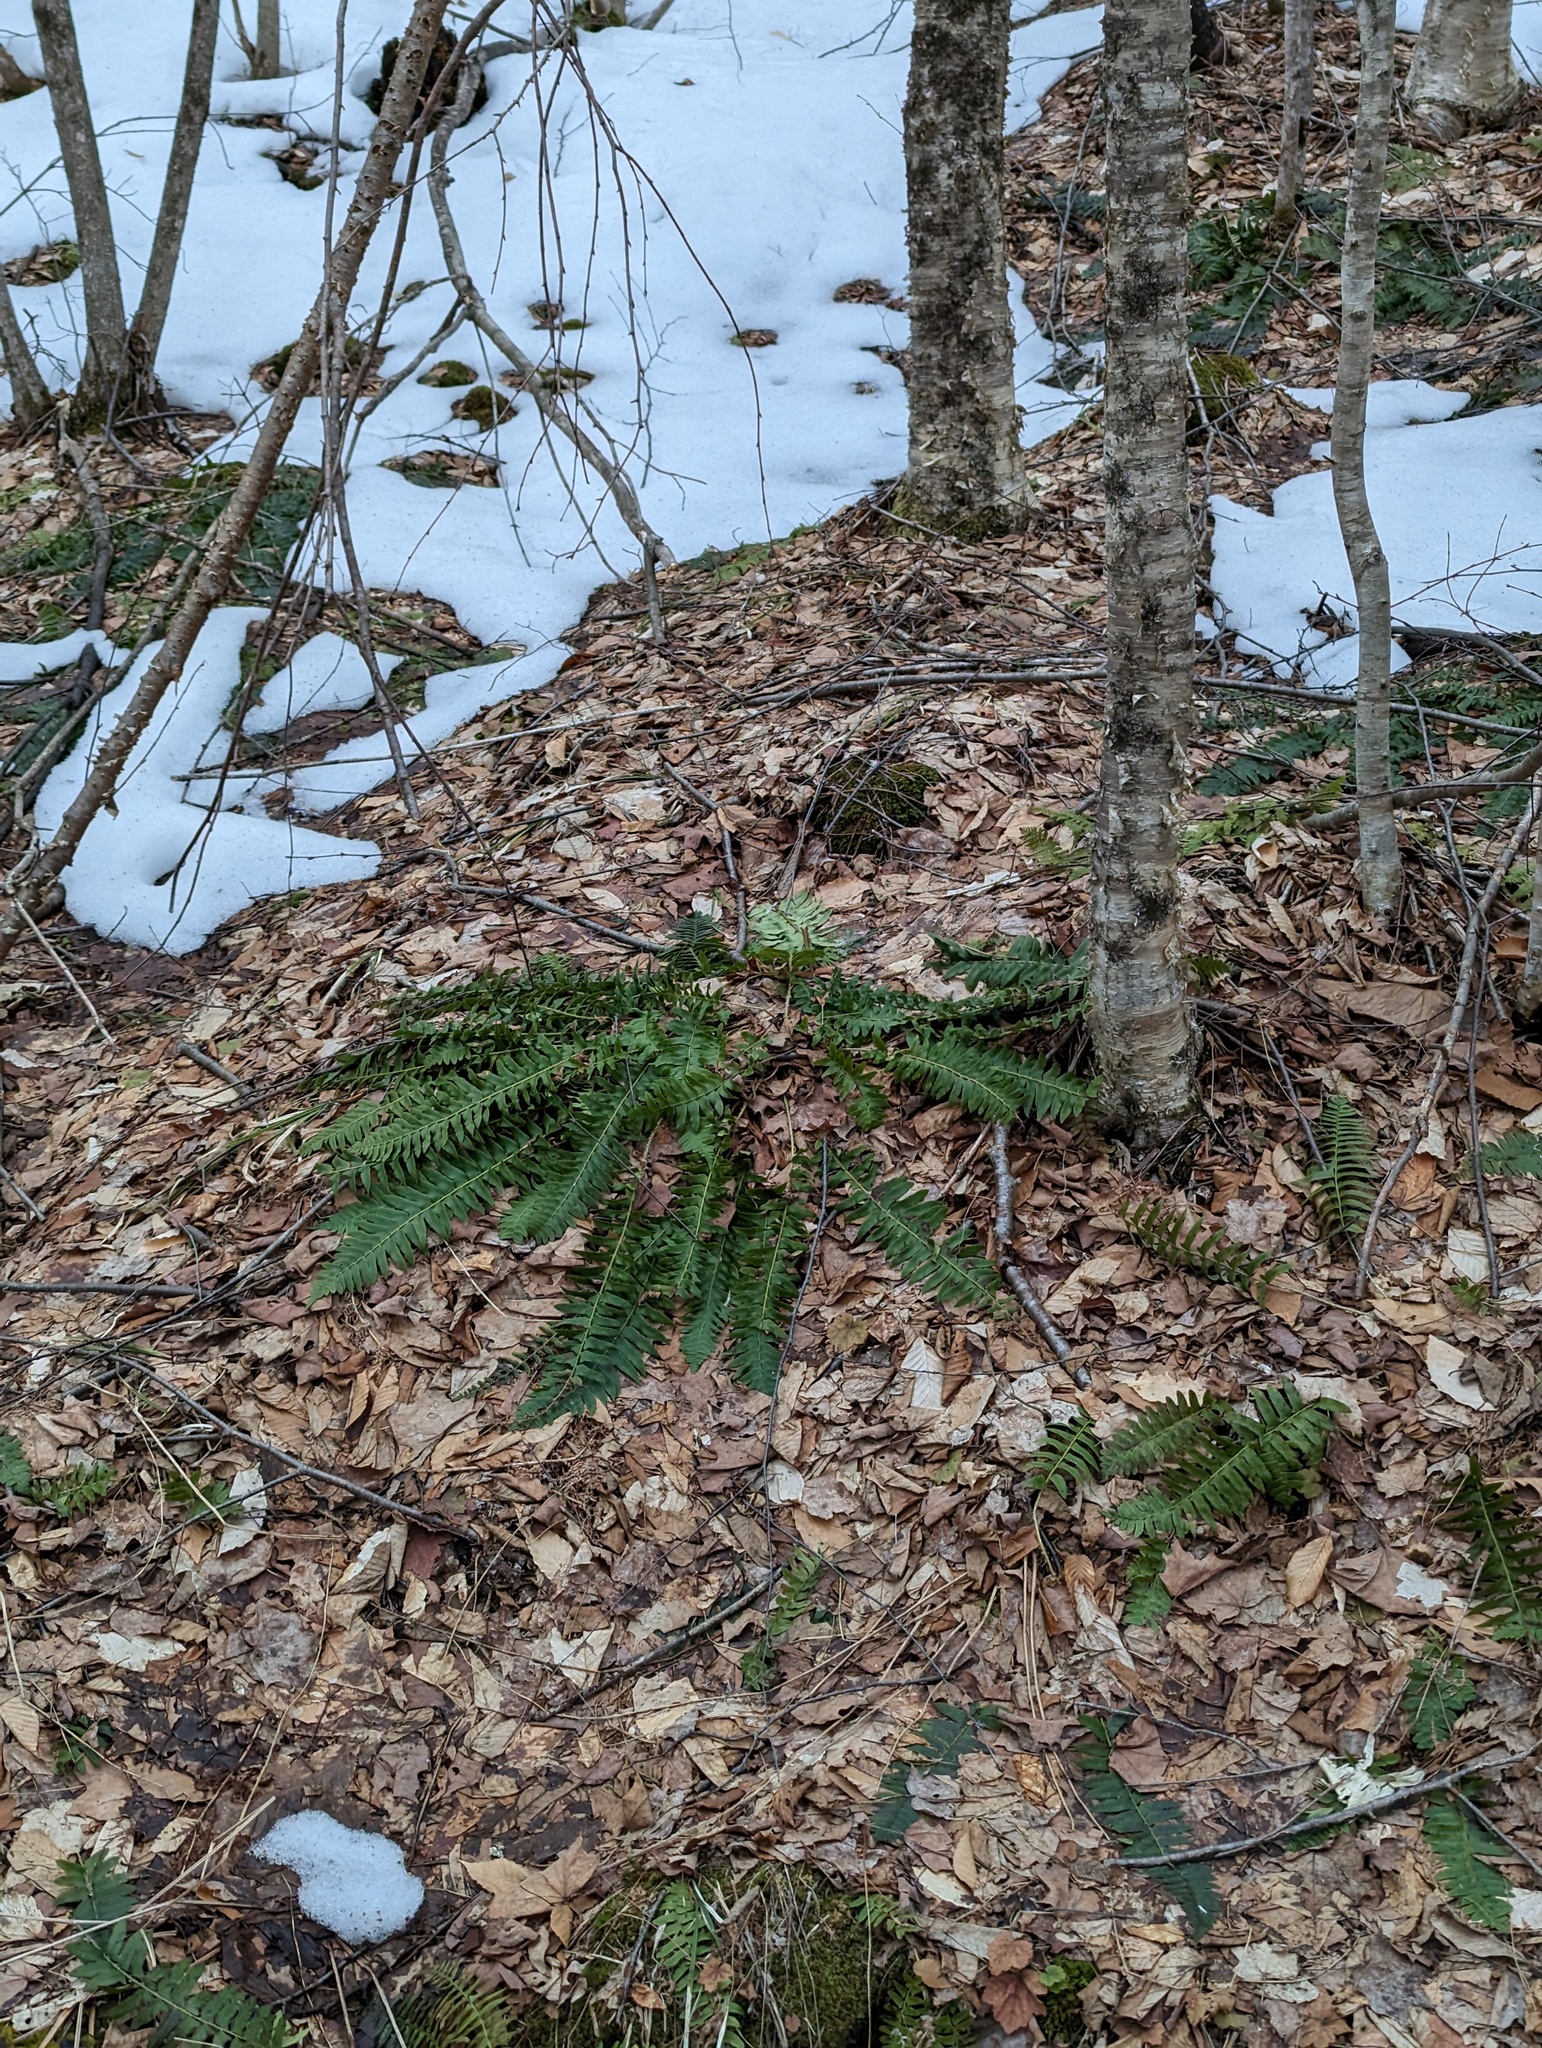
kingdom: Plantae
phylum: Tracheophyta
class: Polypodiopsida
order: Polypodiales
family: Dryopteridaceae
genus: Polystichum
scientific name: Polystichum acrostichoides
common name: Christmas fern
